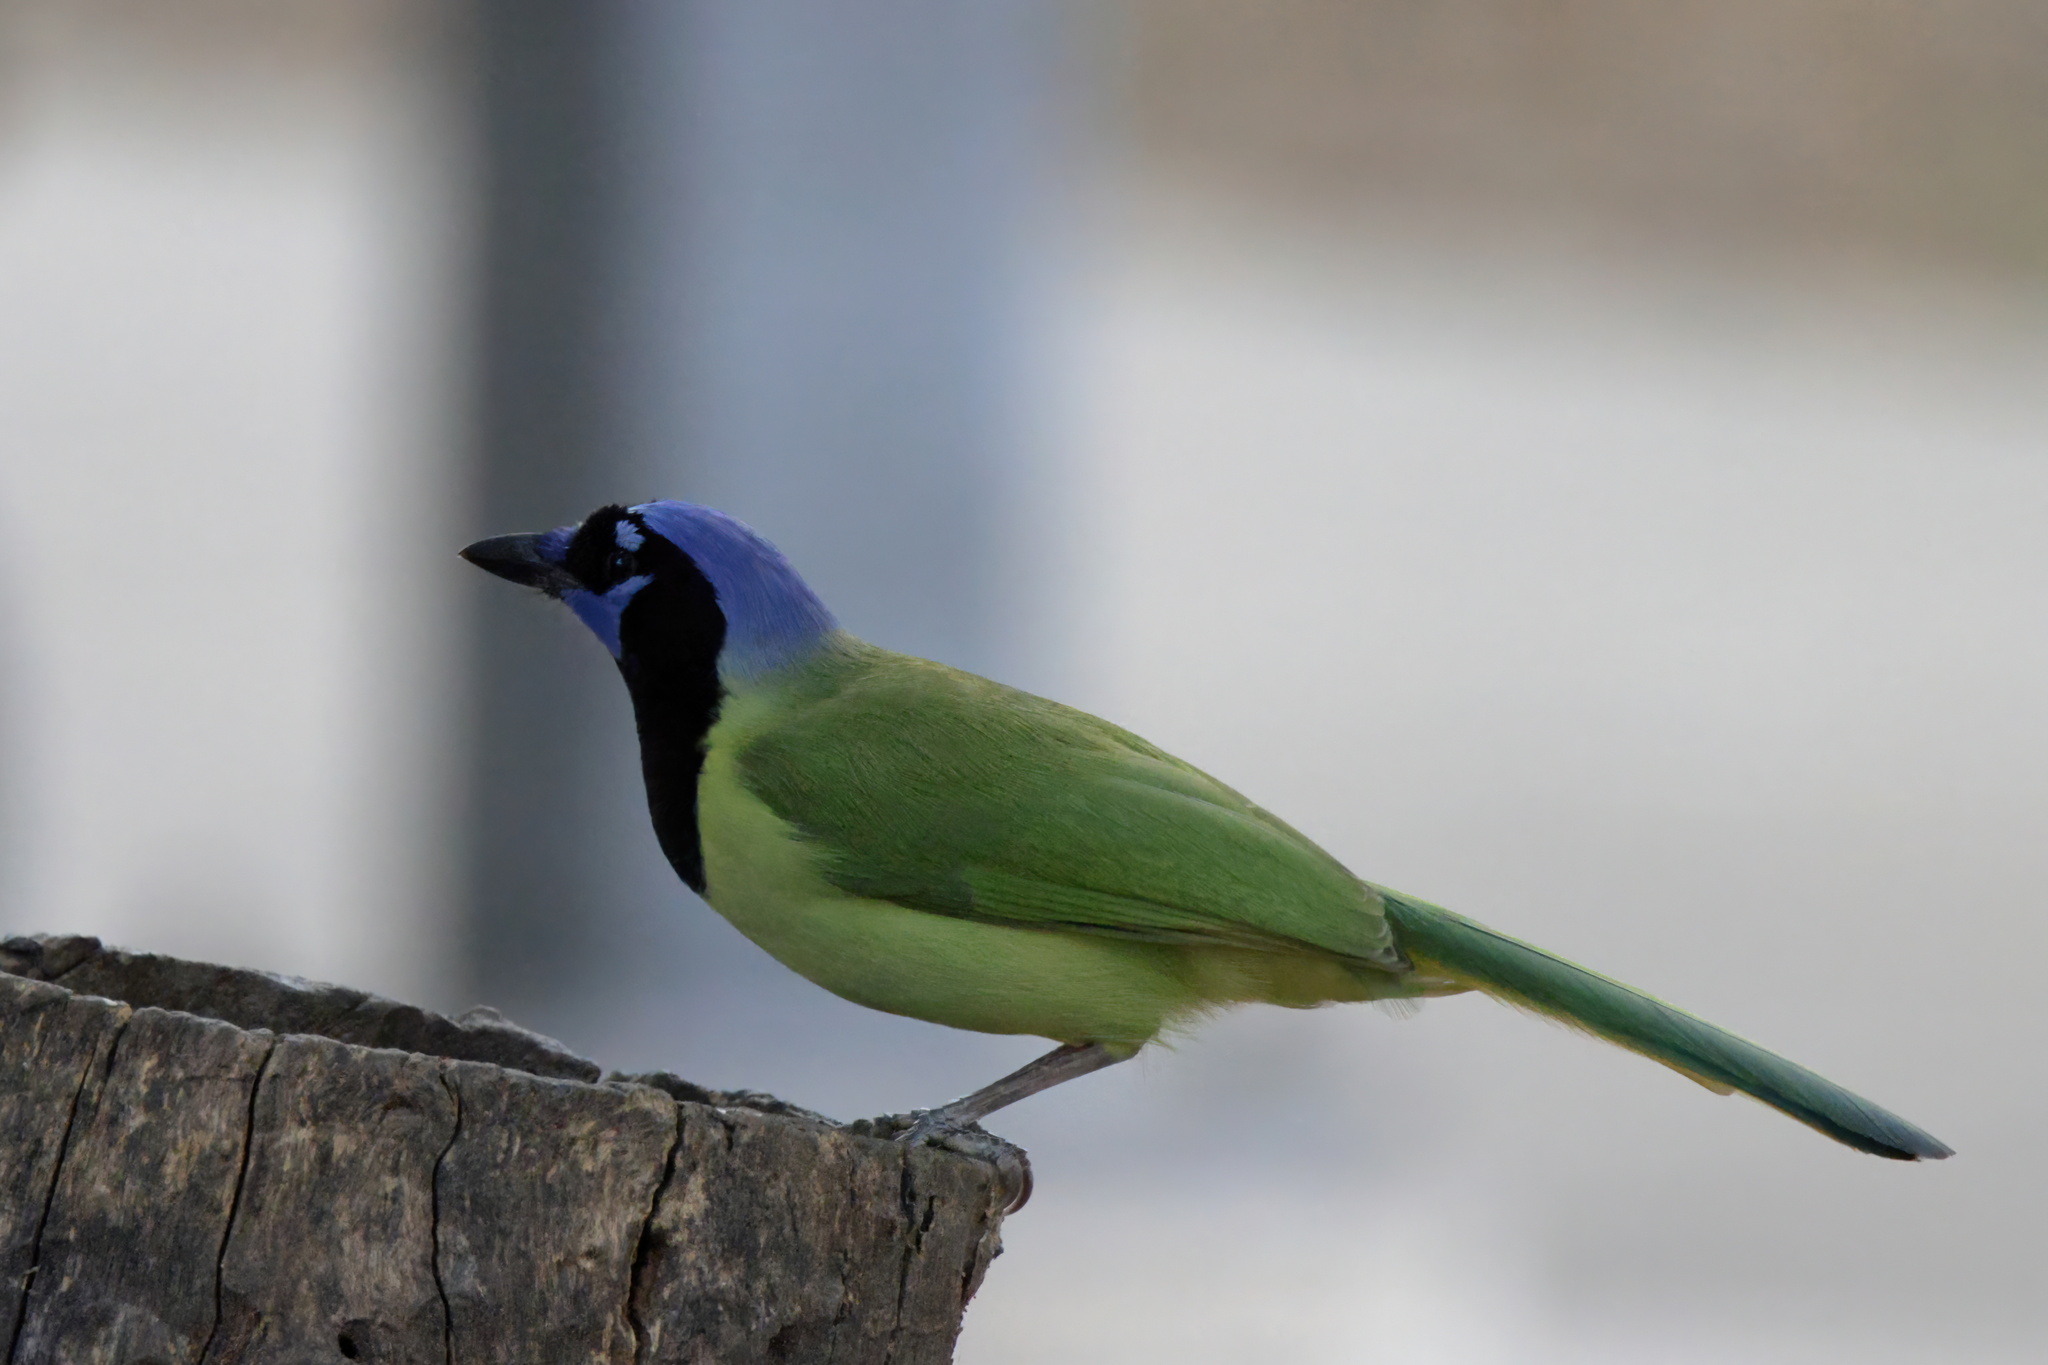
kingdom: Animalia
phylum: Chordata
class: Aves
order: Passeriformes
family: Corvidae
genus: Cyanocorax
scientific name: Cyanocorax yncas
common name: Green jay
